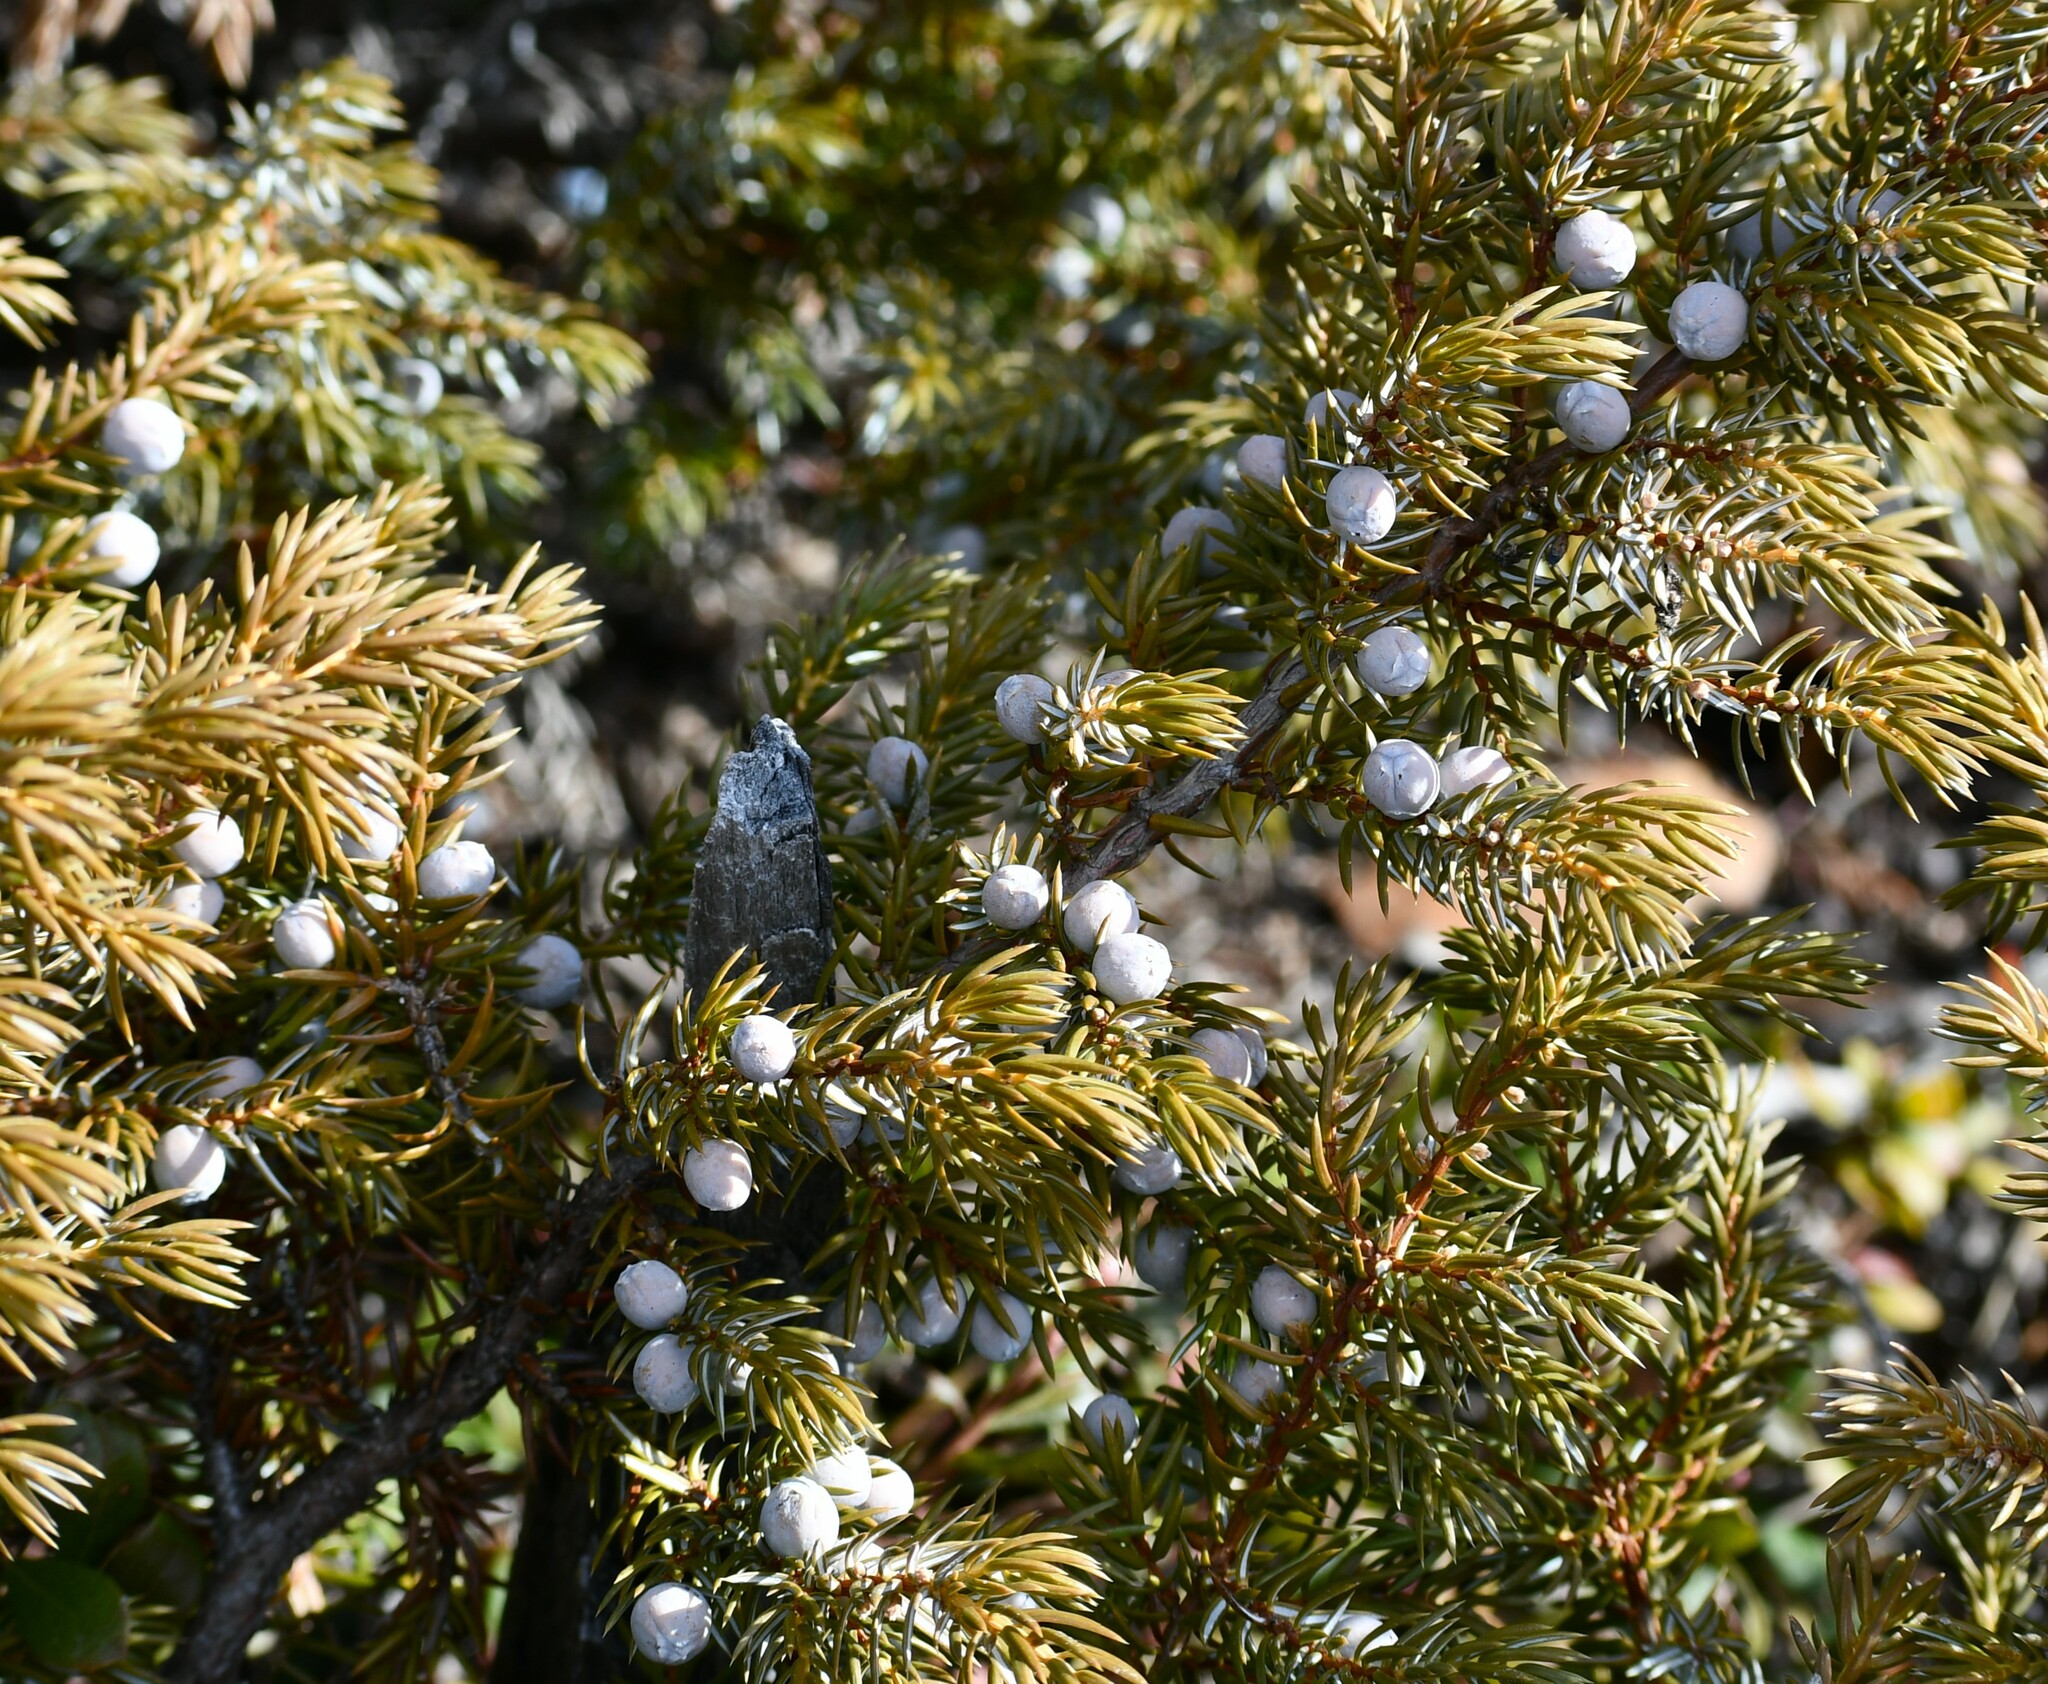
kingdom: Plantae
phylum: Tracheophyta
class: Pinopsida
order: Pinales
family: Cupressaceae
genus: Juniperus
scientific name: Juniperus communis
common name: Common juniper
